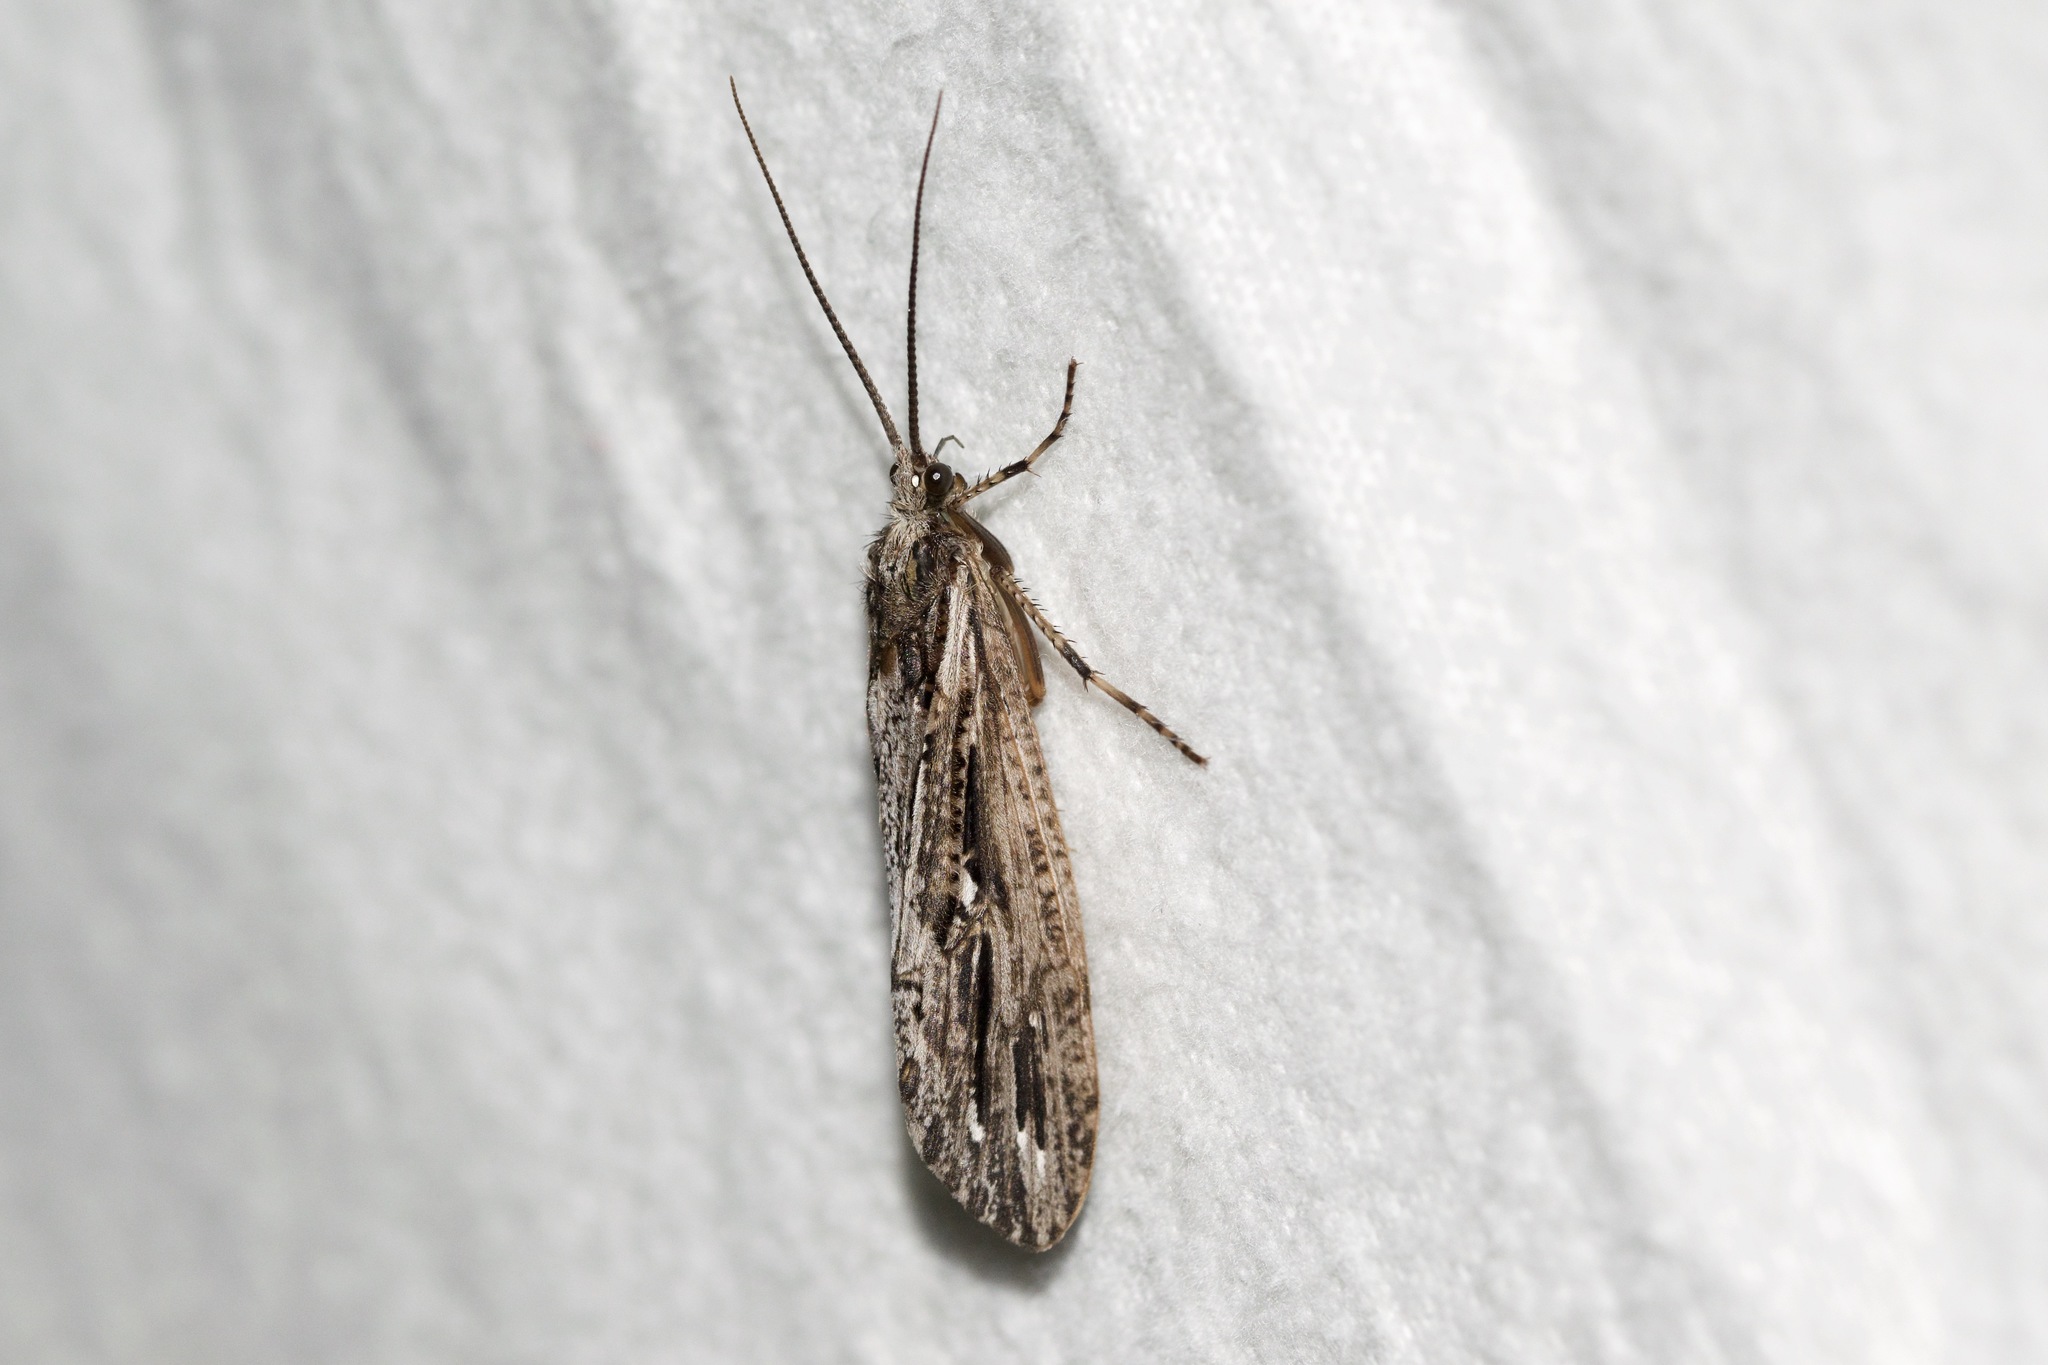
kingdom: Animalia
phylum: Arthropoda
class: Insecta
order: Trichoptera
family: Phryganeidae
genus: Phryganea
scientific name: Phryganea sayi
